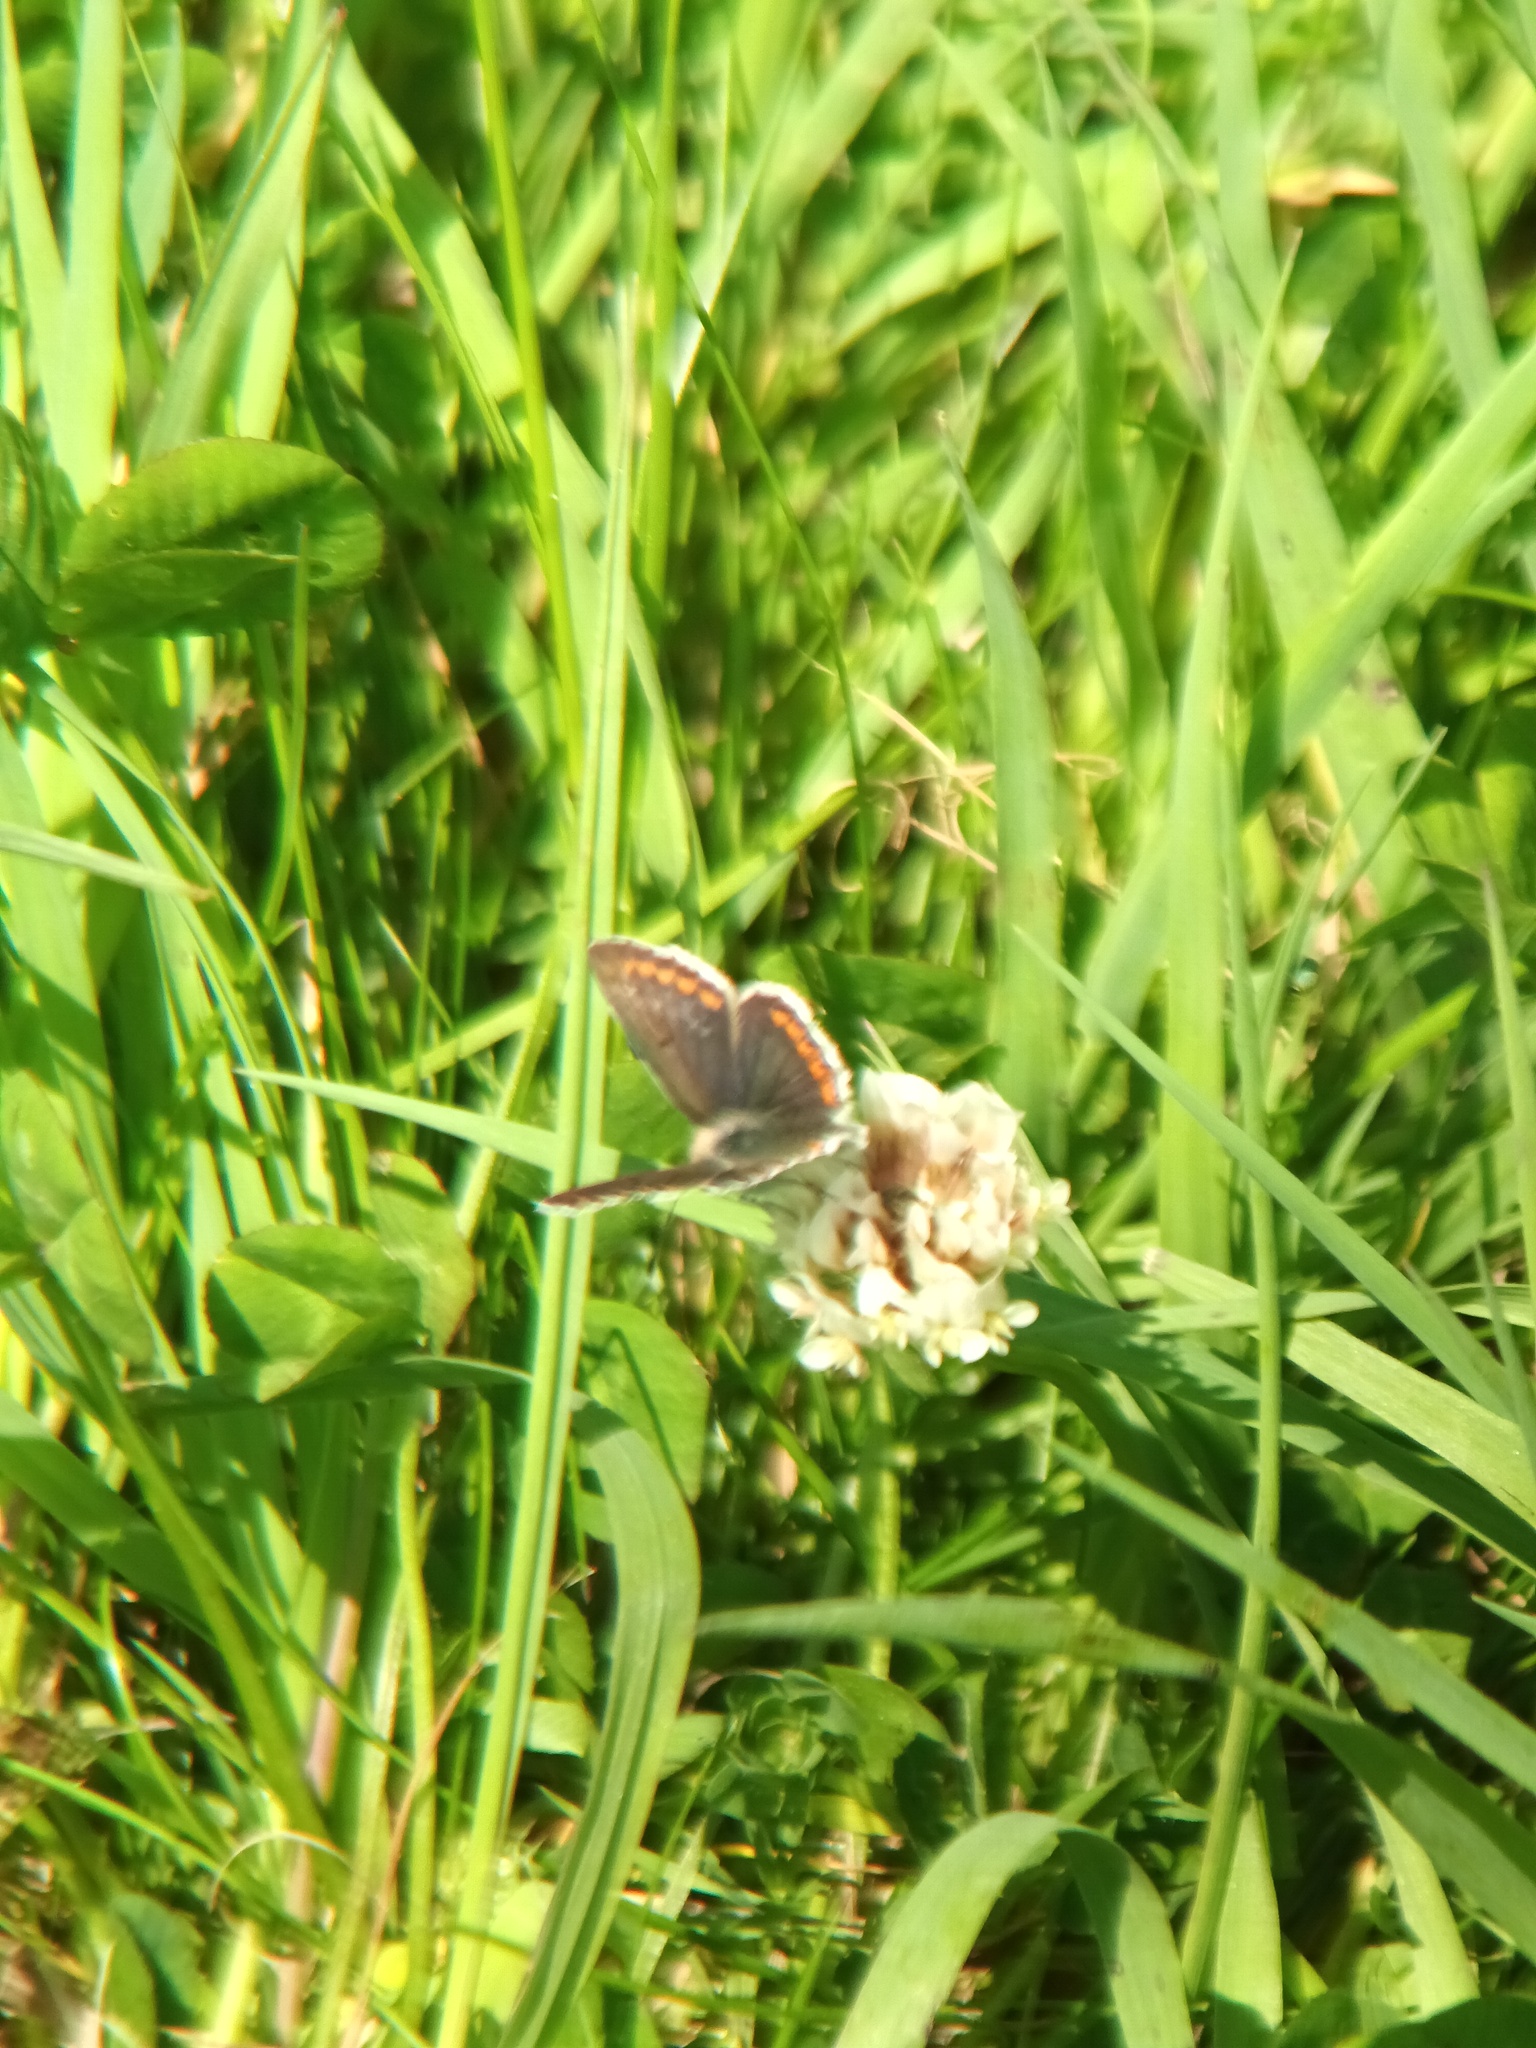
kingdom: Animalia
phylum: Arthropoda
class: Insecta
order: Lepidoptera
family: Lycaenidae
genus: Aricia
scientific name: Aricia agestis
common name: Brown argus
